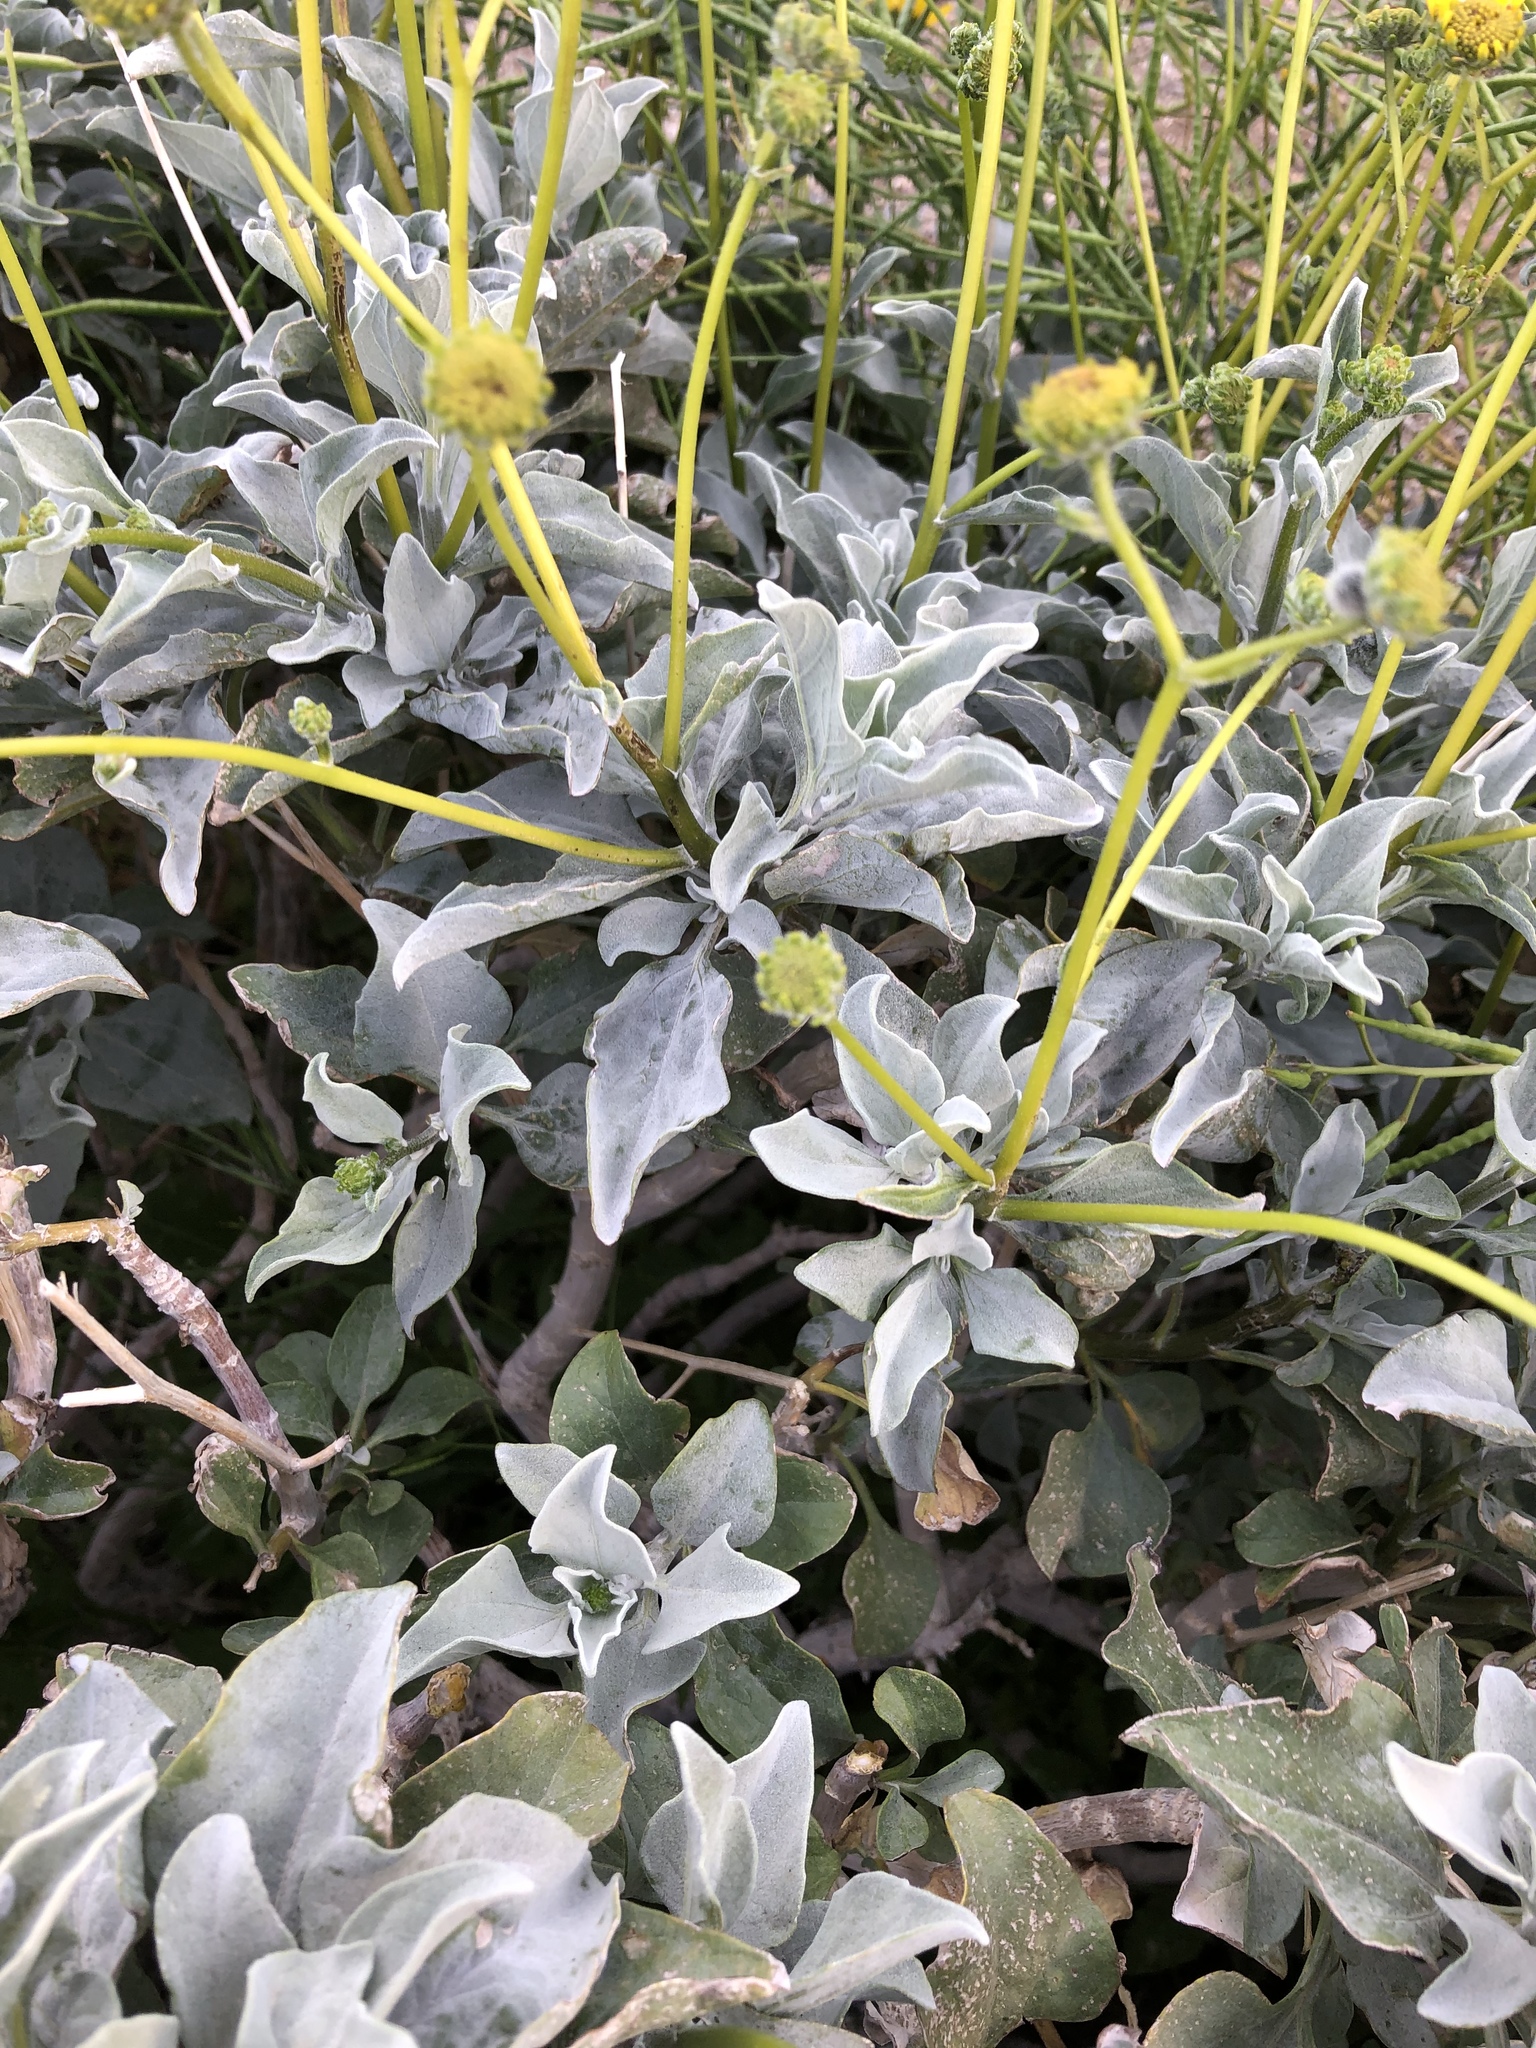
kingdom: Plantae
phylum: Tracheophyta
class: Magnoliopsida
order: Asterales
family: Asteraceae
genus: Encelia
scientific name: Encelia farinosa
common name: Brittlebush
